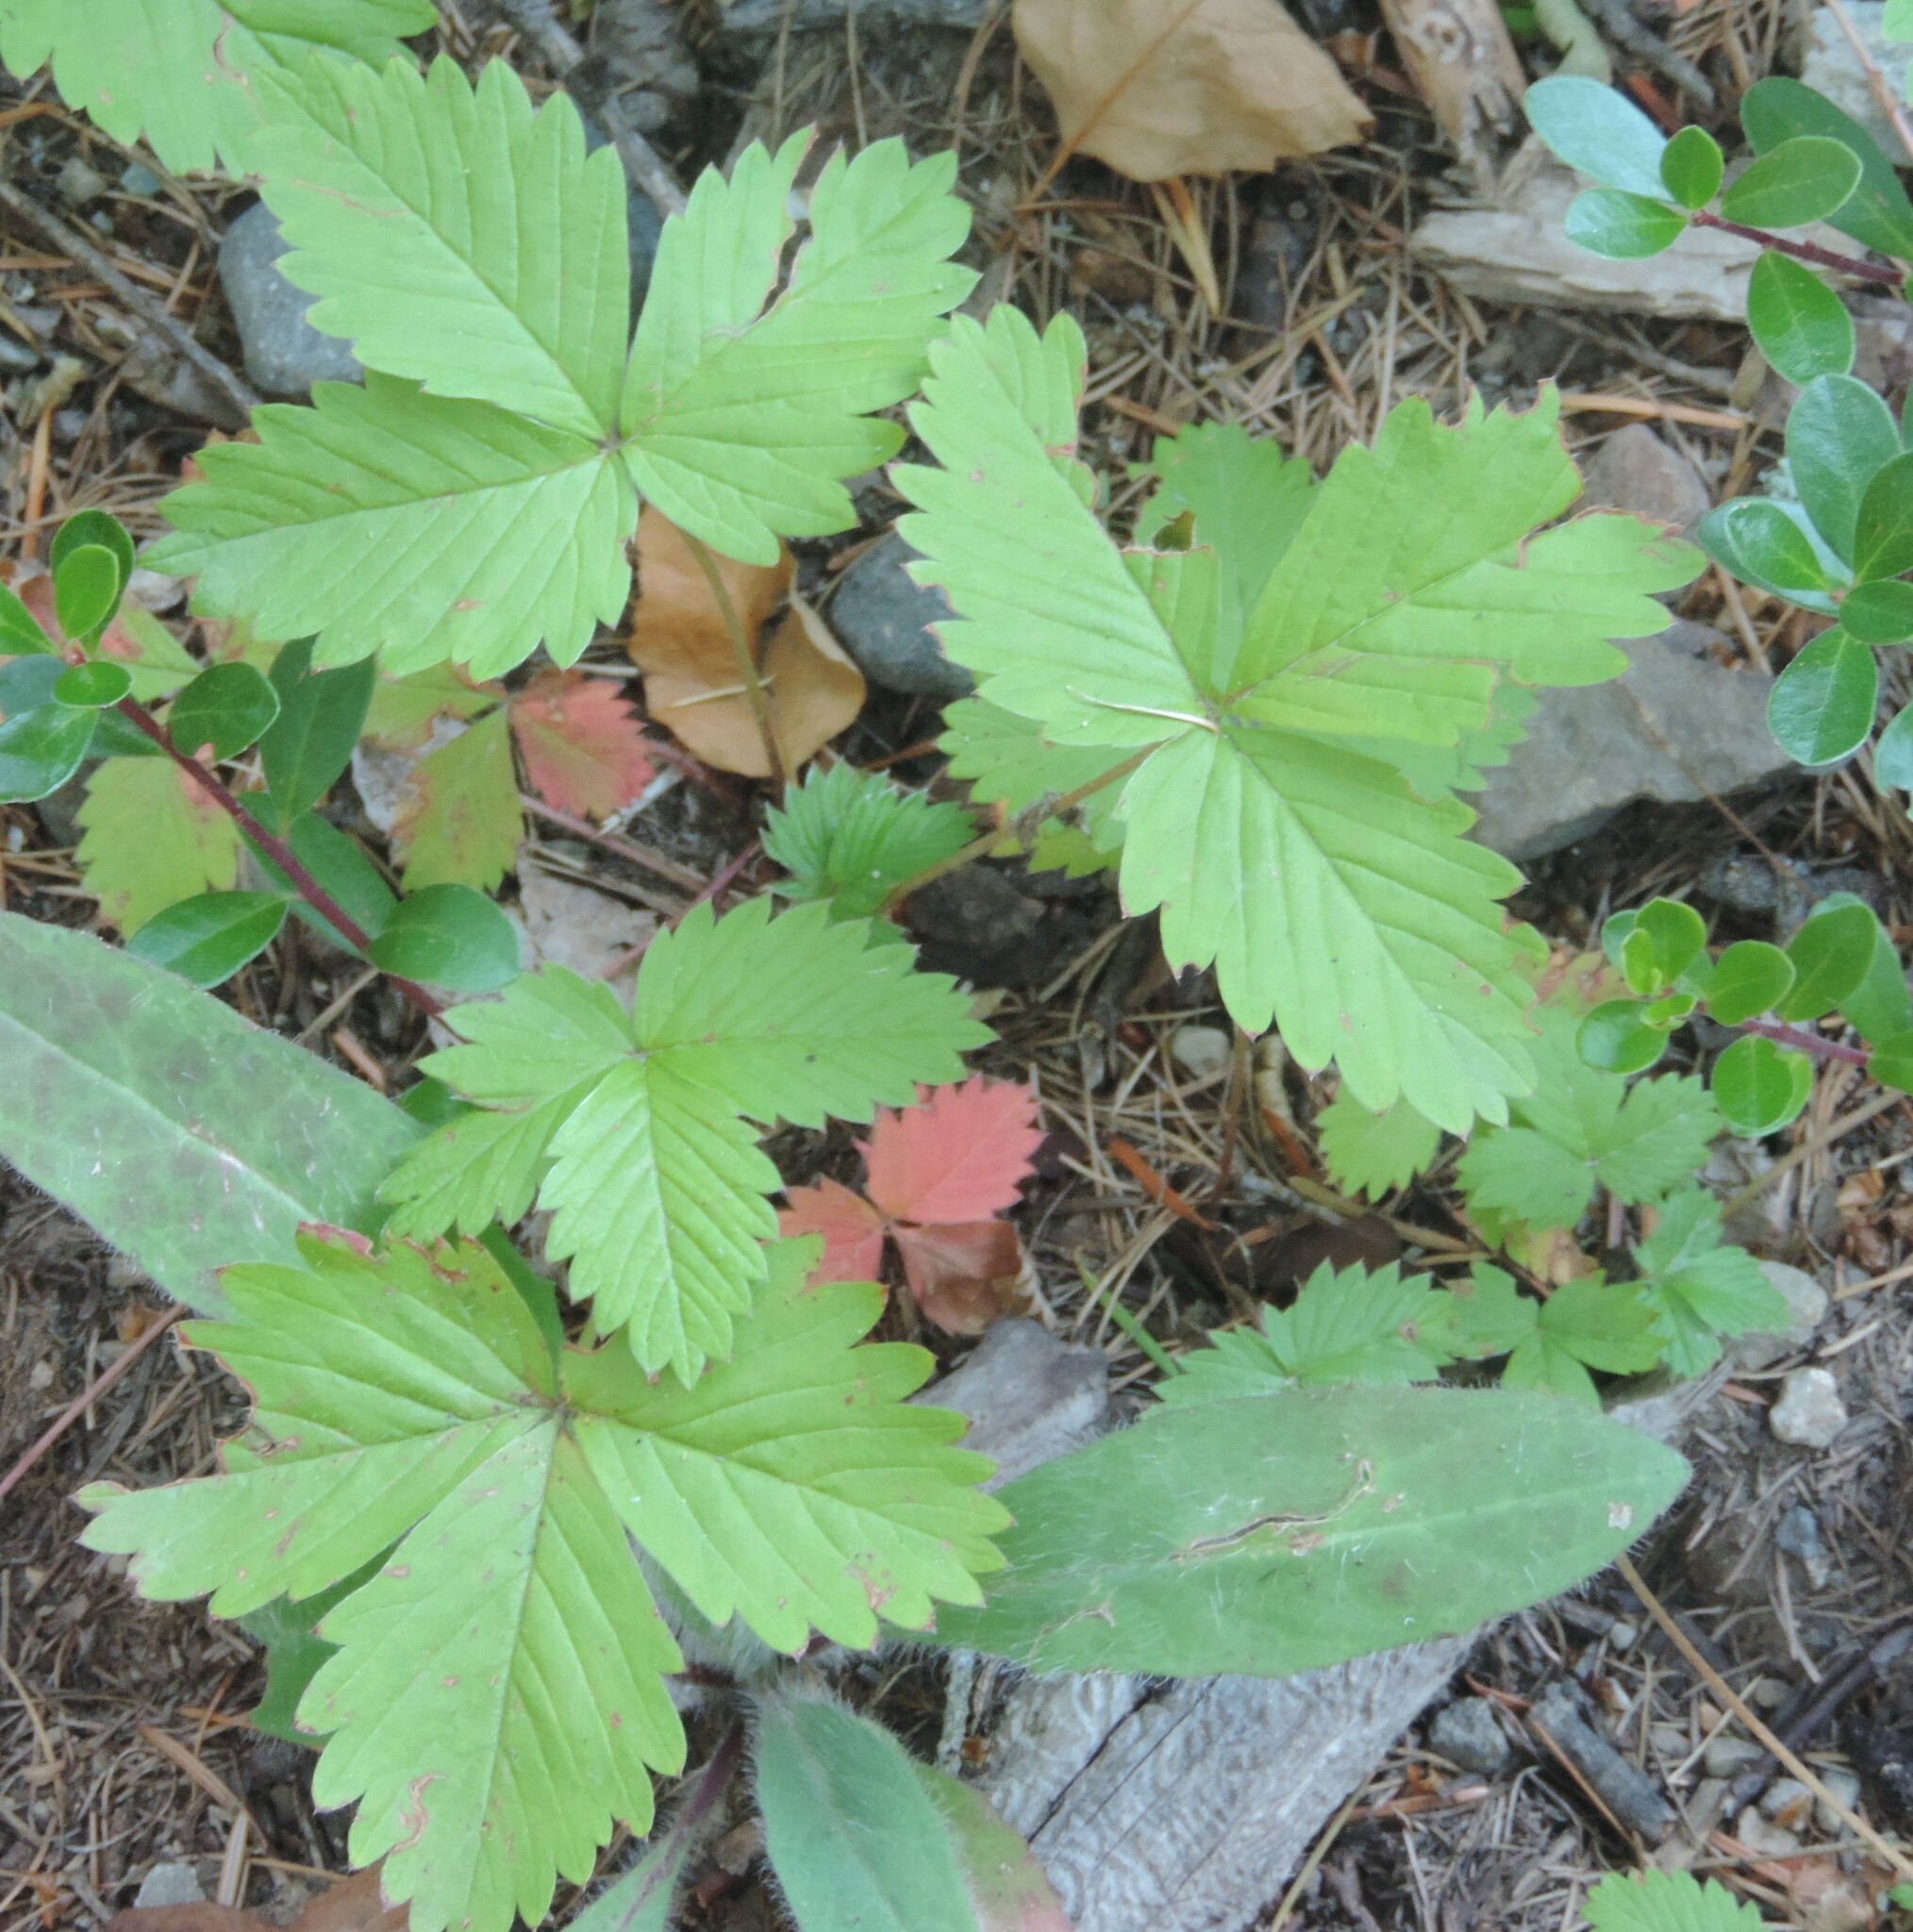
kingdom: Plantae
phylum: Tracheophyta
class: Magnoliopsida
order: Rosales
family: Rosaceae
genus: Fragaria
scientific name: Fragaria vesca
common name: Wild strawberry
